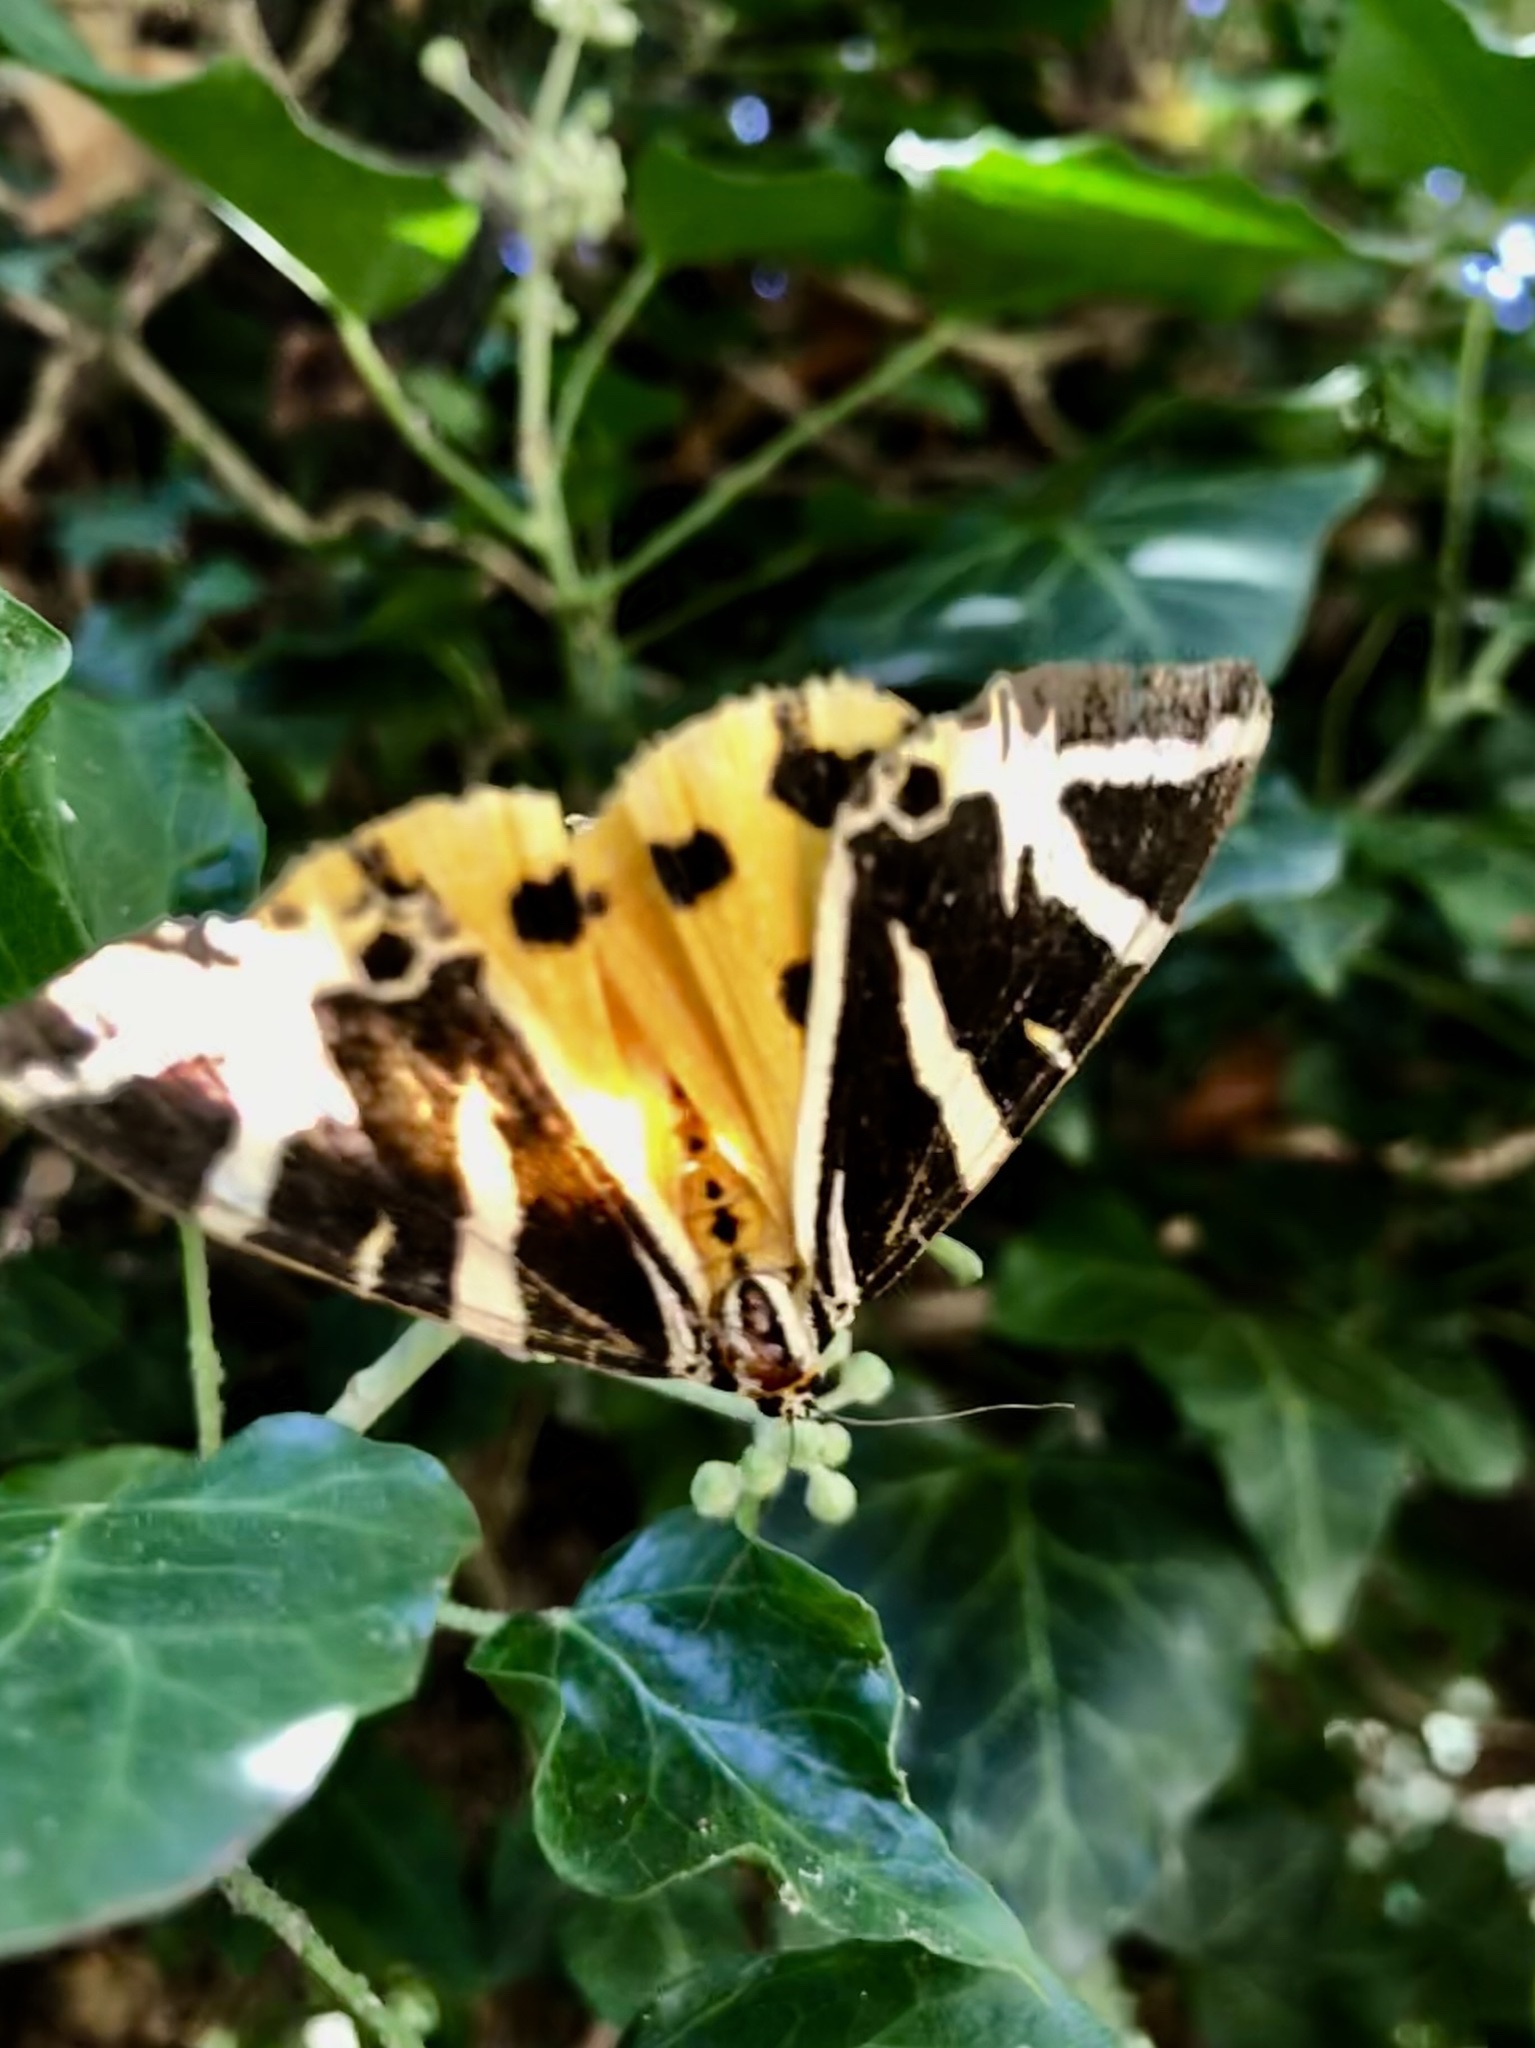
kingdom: Animalia
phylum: Arthropoda
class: Insecta
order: Lepidoptera
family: Erebidae
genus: Euplagia
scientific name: Euplagia quadripunctaria
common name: Jersey tiger
